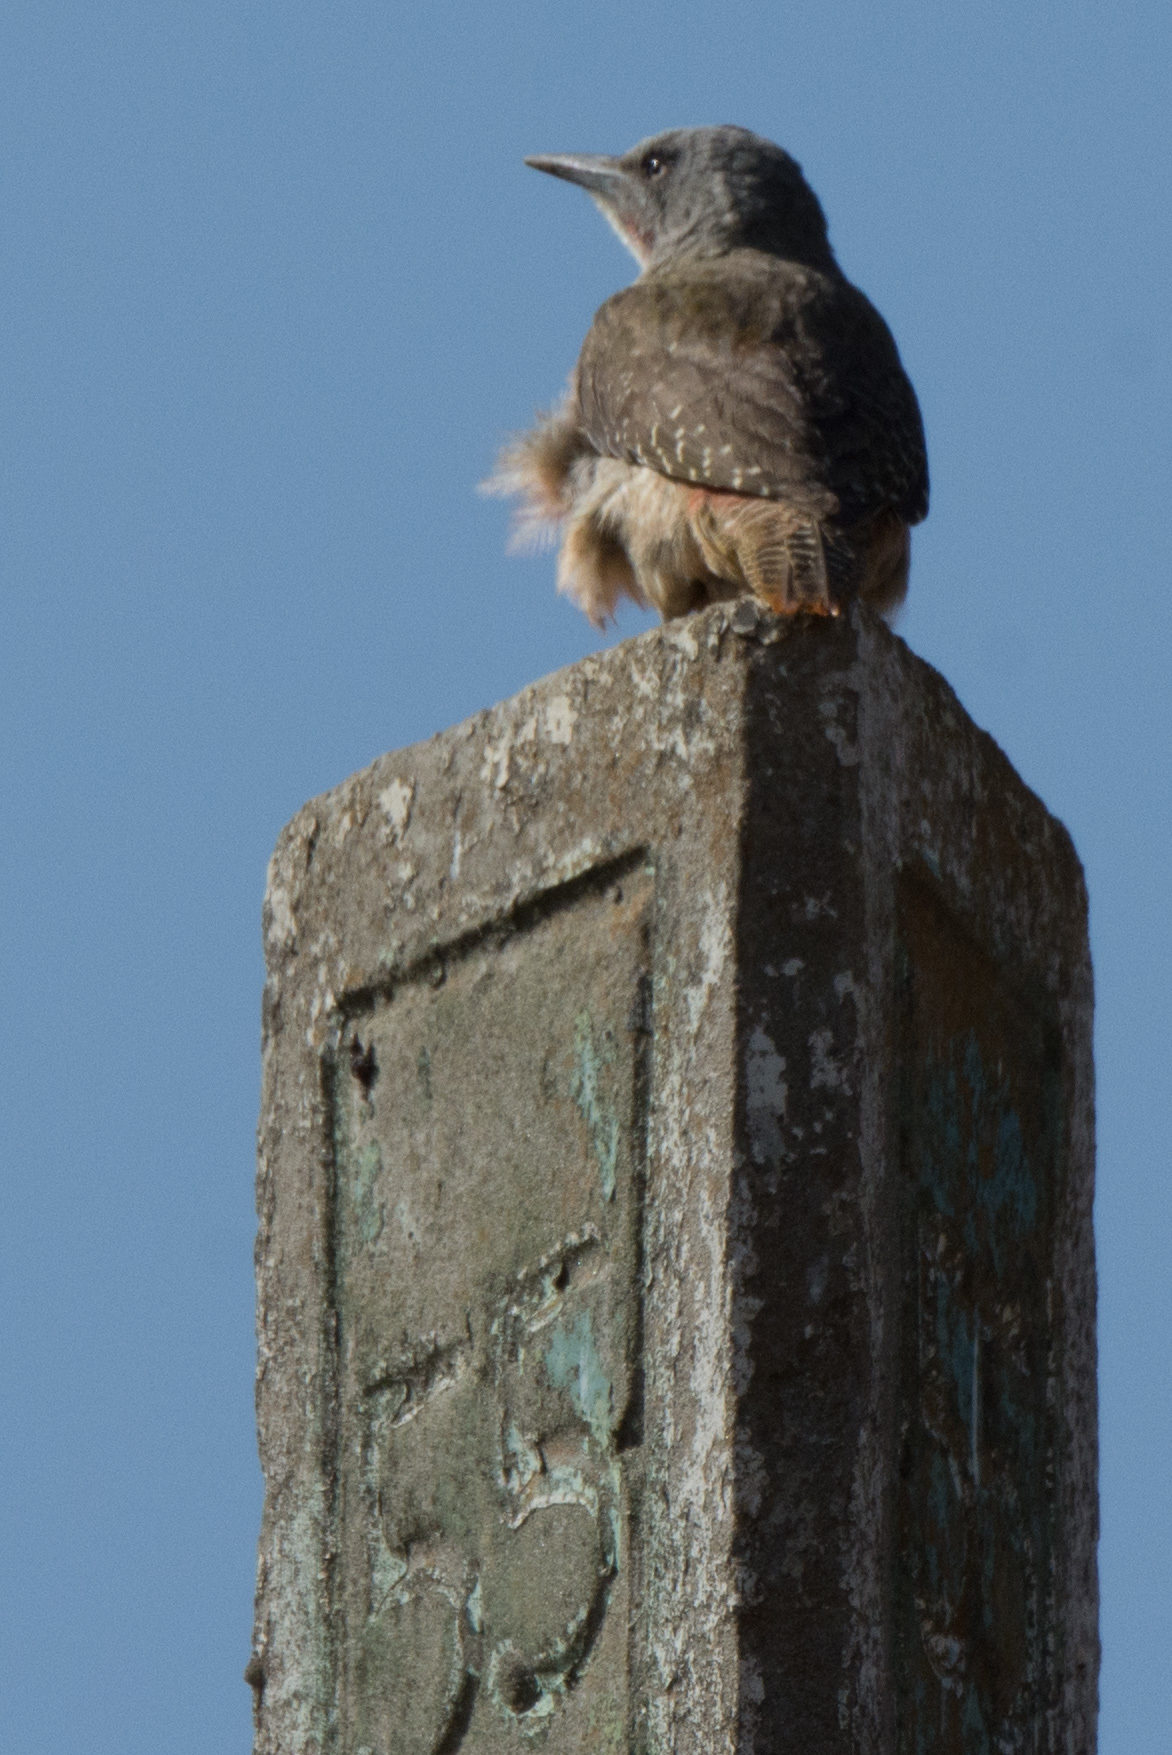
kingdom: Animalia
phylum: Chordata
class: Aves
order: Piciformes
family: Picidae
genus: Geocolaptes
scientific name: Geocolaptes olivaceus
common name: Ground woodpecker
